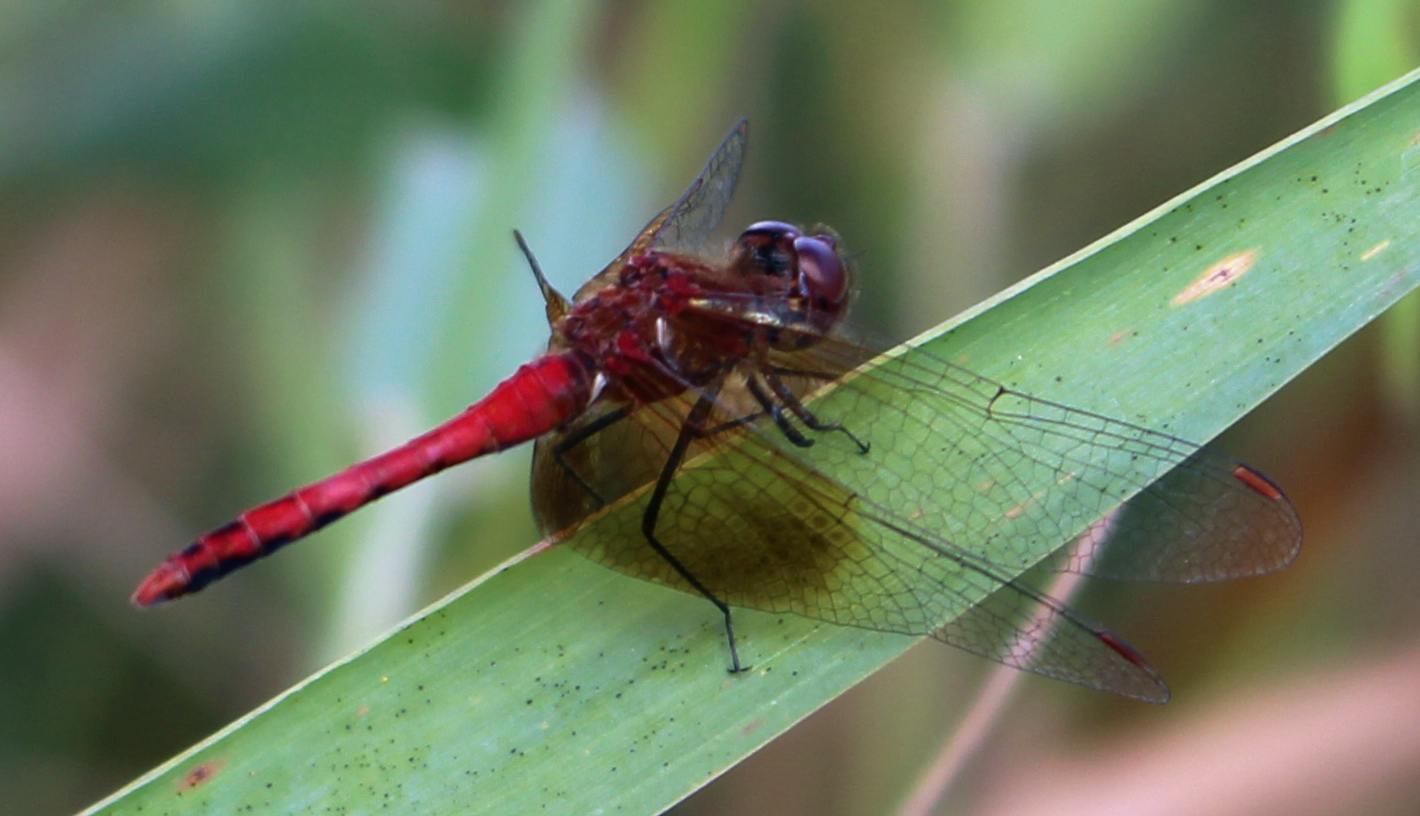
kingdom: Animalia
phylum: Arthropoda
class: Insecta
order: Odonata
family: Libellulidae
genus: Sympetrum
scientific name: Sympetrum semicinctum
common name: Band-winged meadowhawk
